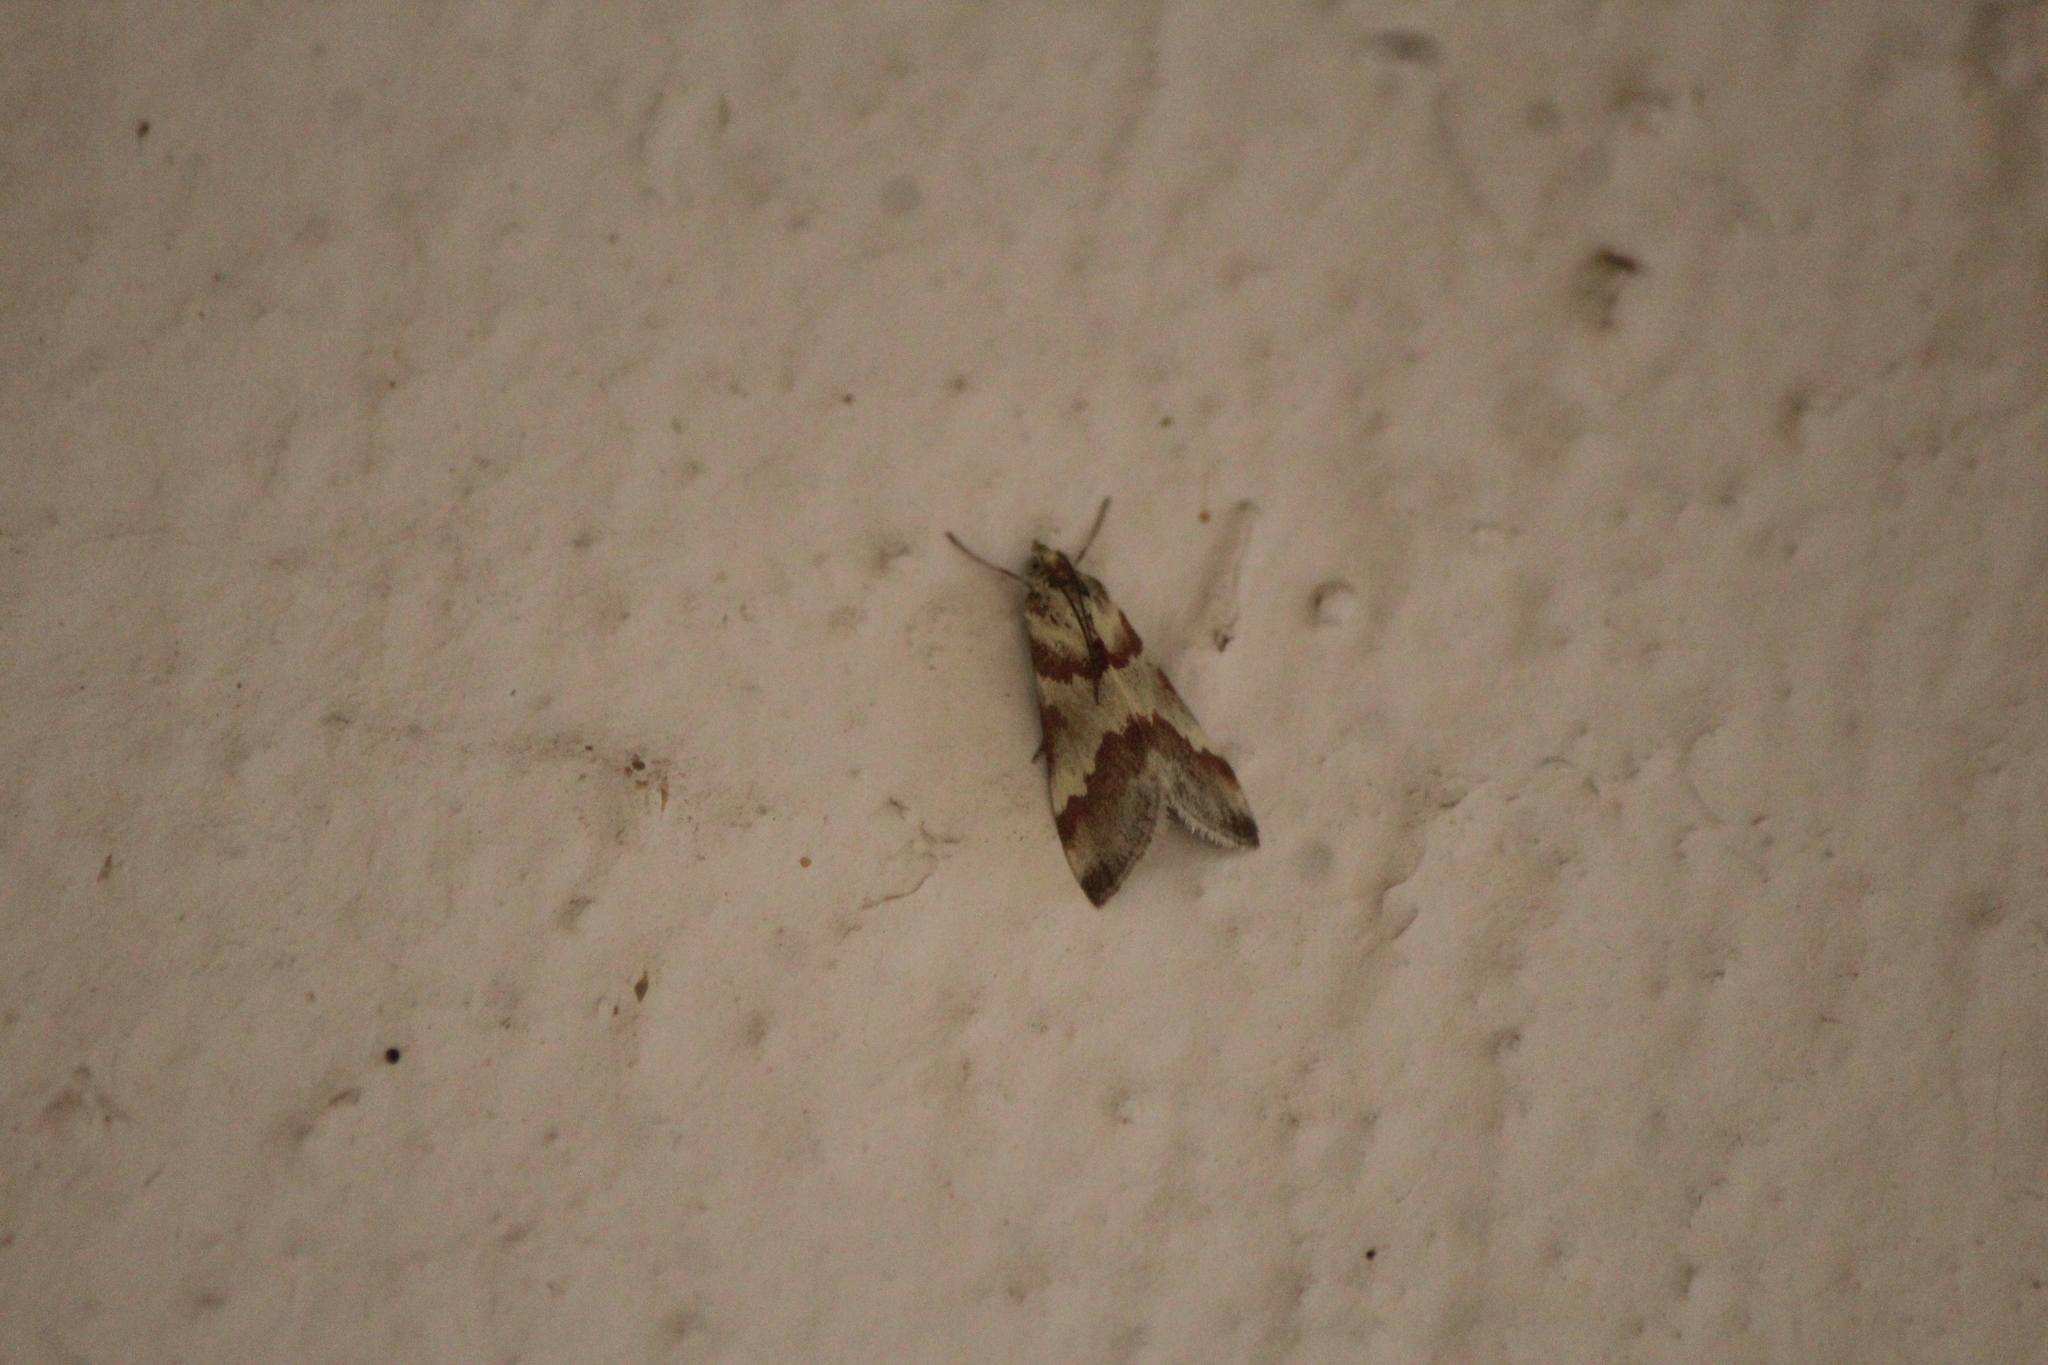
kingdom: Animalia
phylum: Arthropoda
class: Insecta
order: Lepidoptera
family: Crambidae
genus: Noctuelia
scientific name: Noctuelia Mimoschinia rufofascialis
